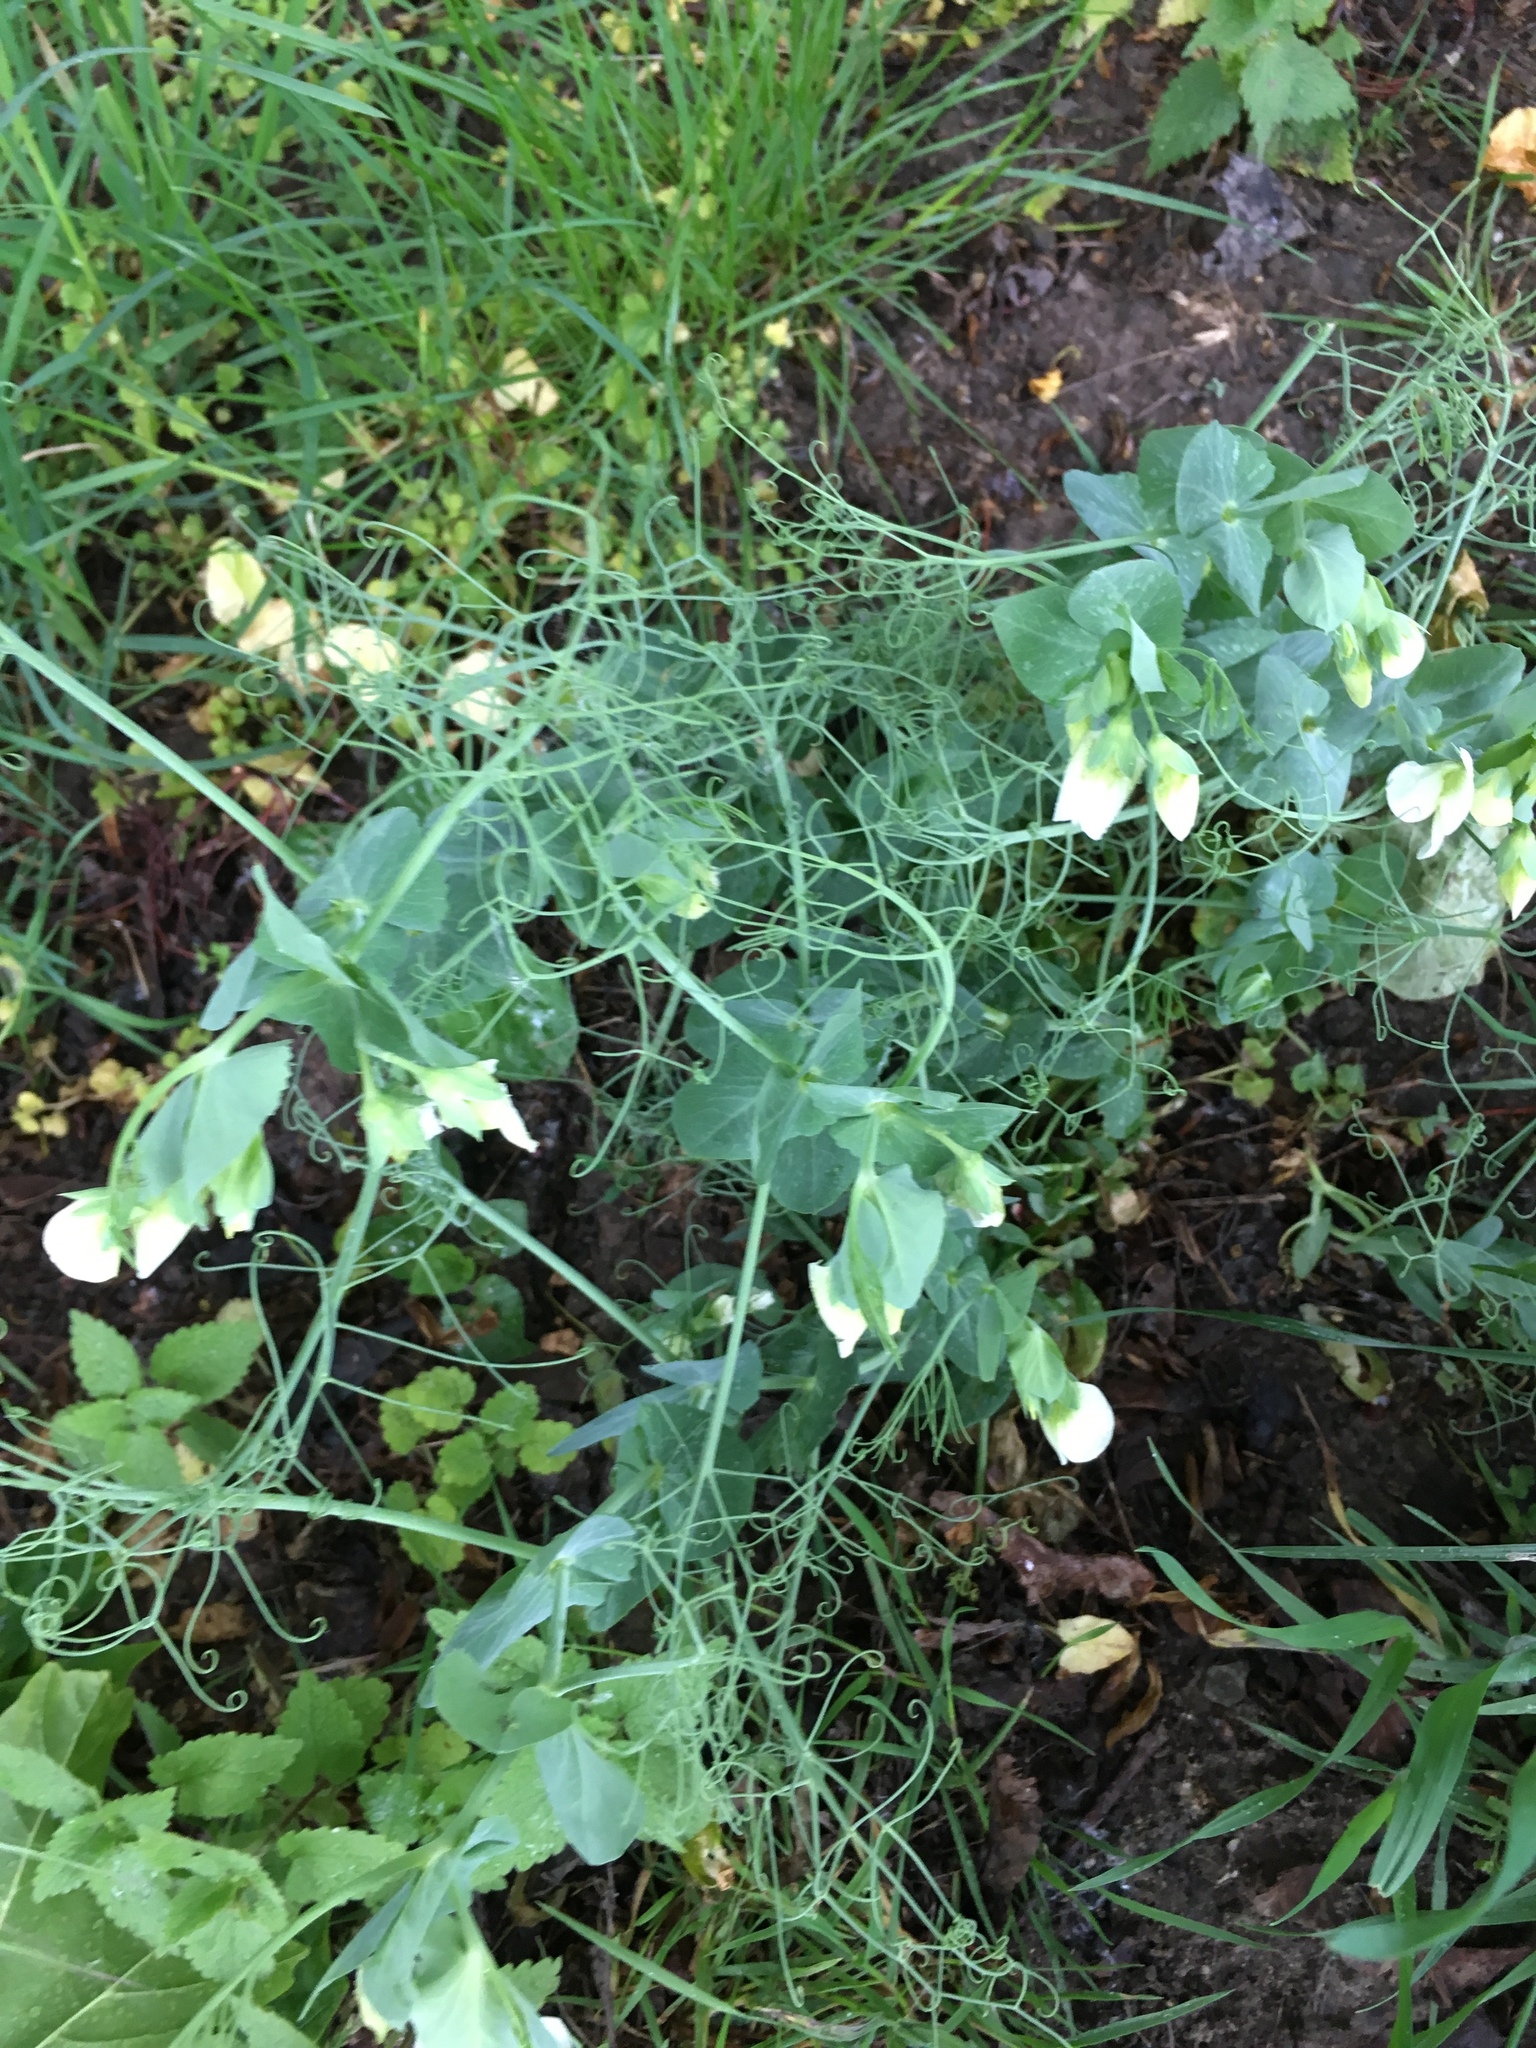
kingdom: Plantae
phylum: Tracheophyta
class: Magnoliopsida
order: Fabales
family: Fabaceae
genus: Lathyrus
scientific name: Lathyrus oleraceus
